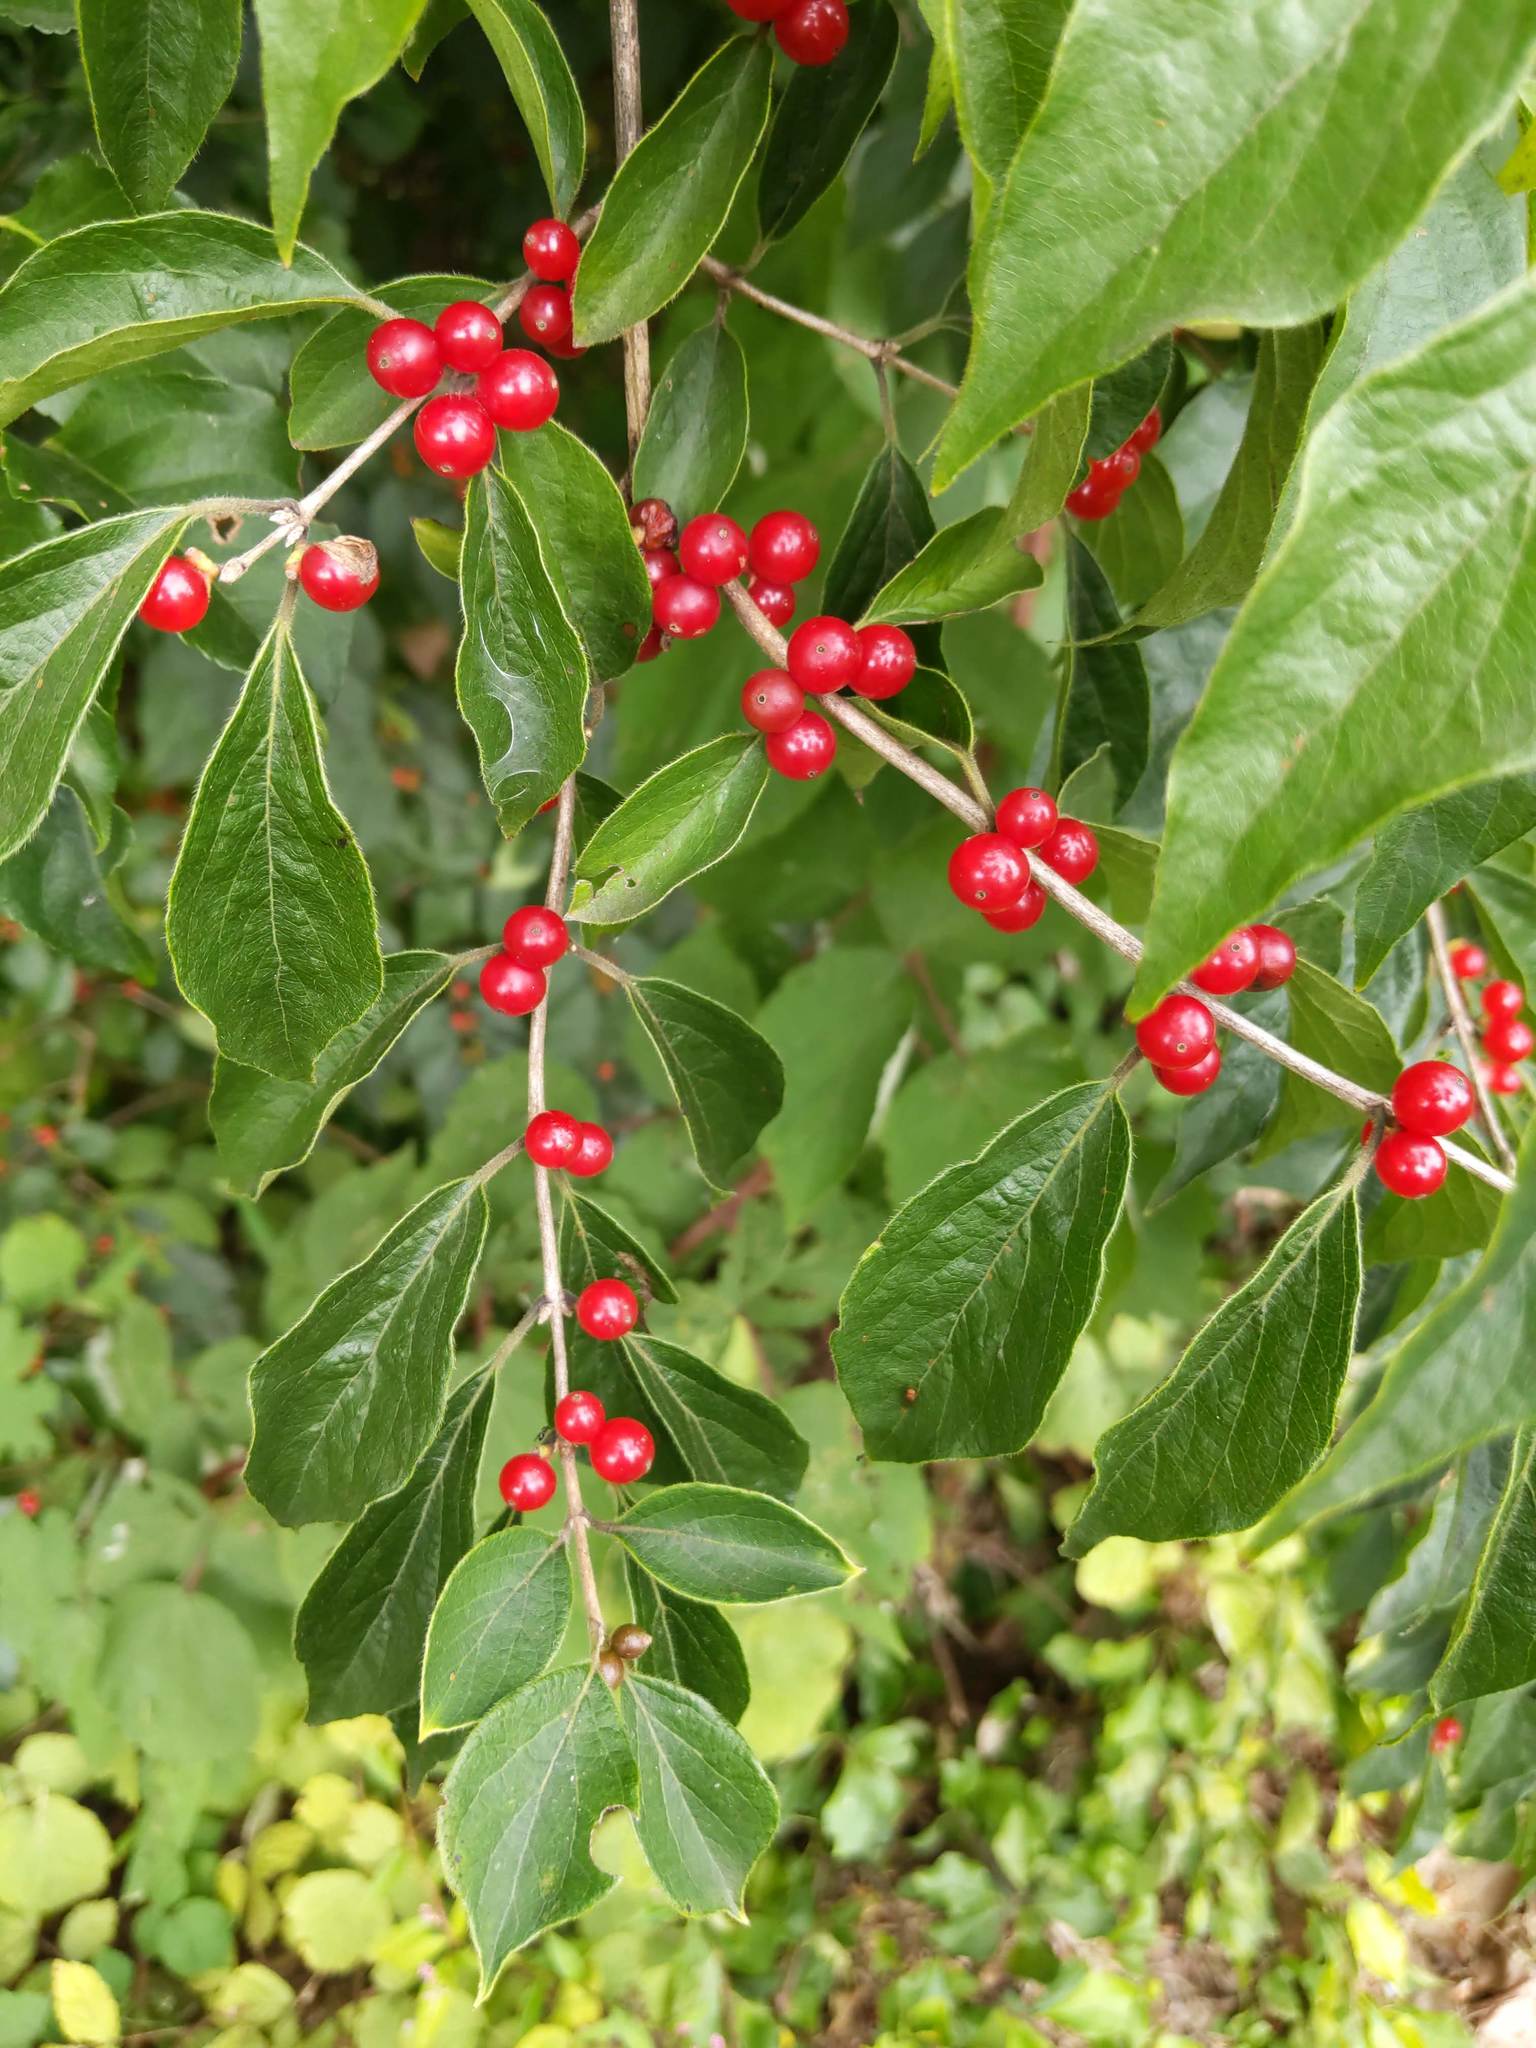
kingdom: Plantae
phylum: Tracheophyta
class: Magnoliopsida
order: Dipsacales
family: Caprifoliaceae
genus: Lonicera
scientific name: Lonicera maackii
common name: Amur honeysuckle
